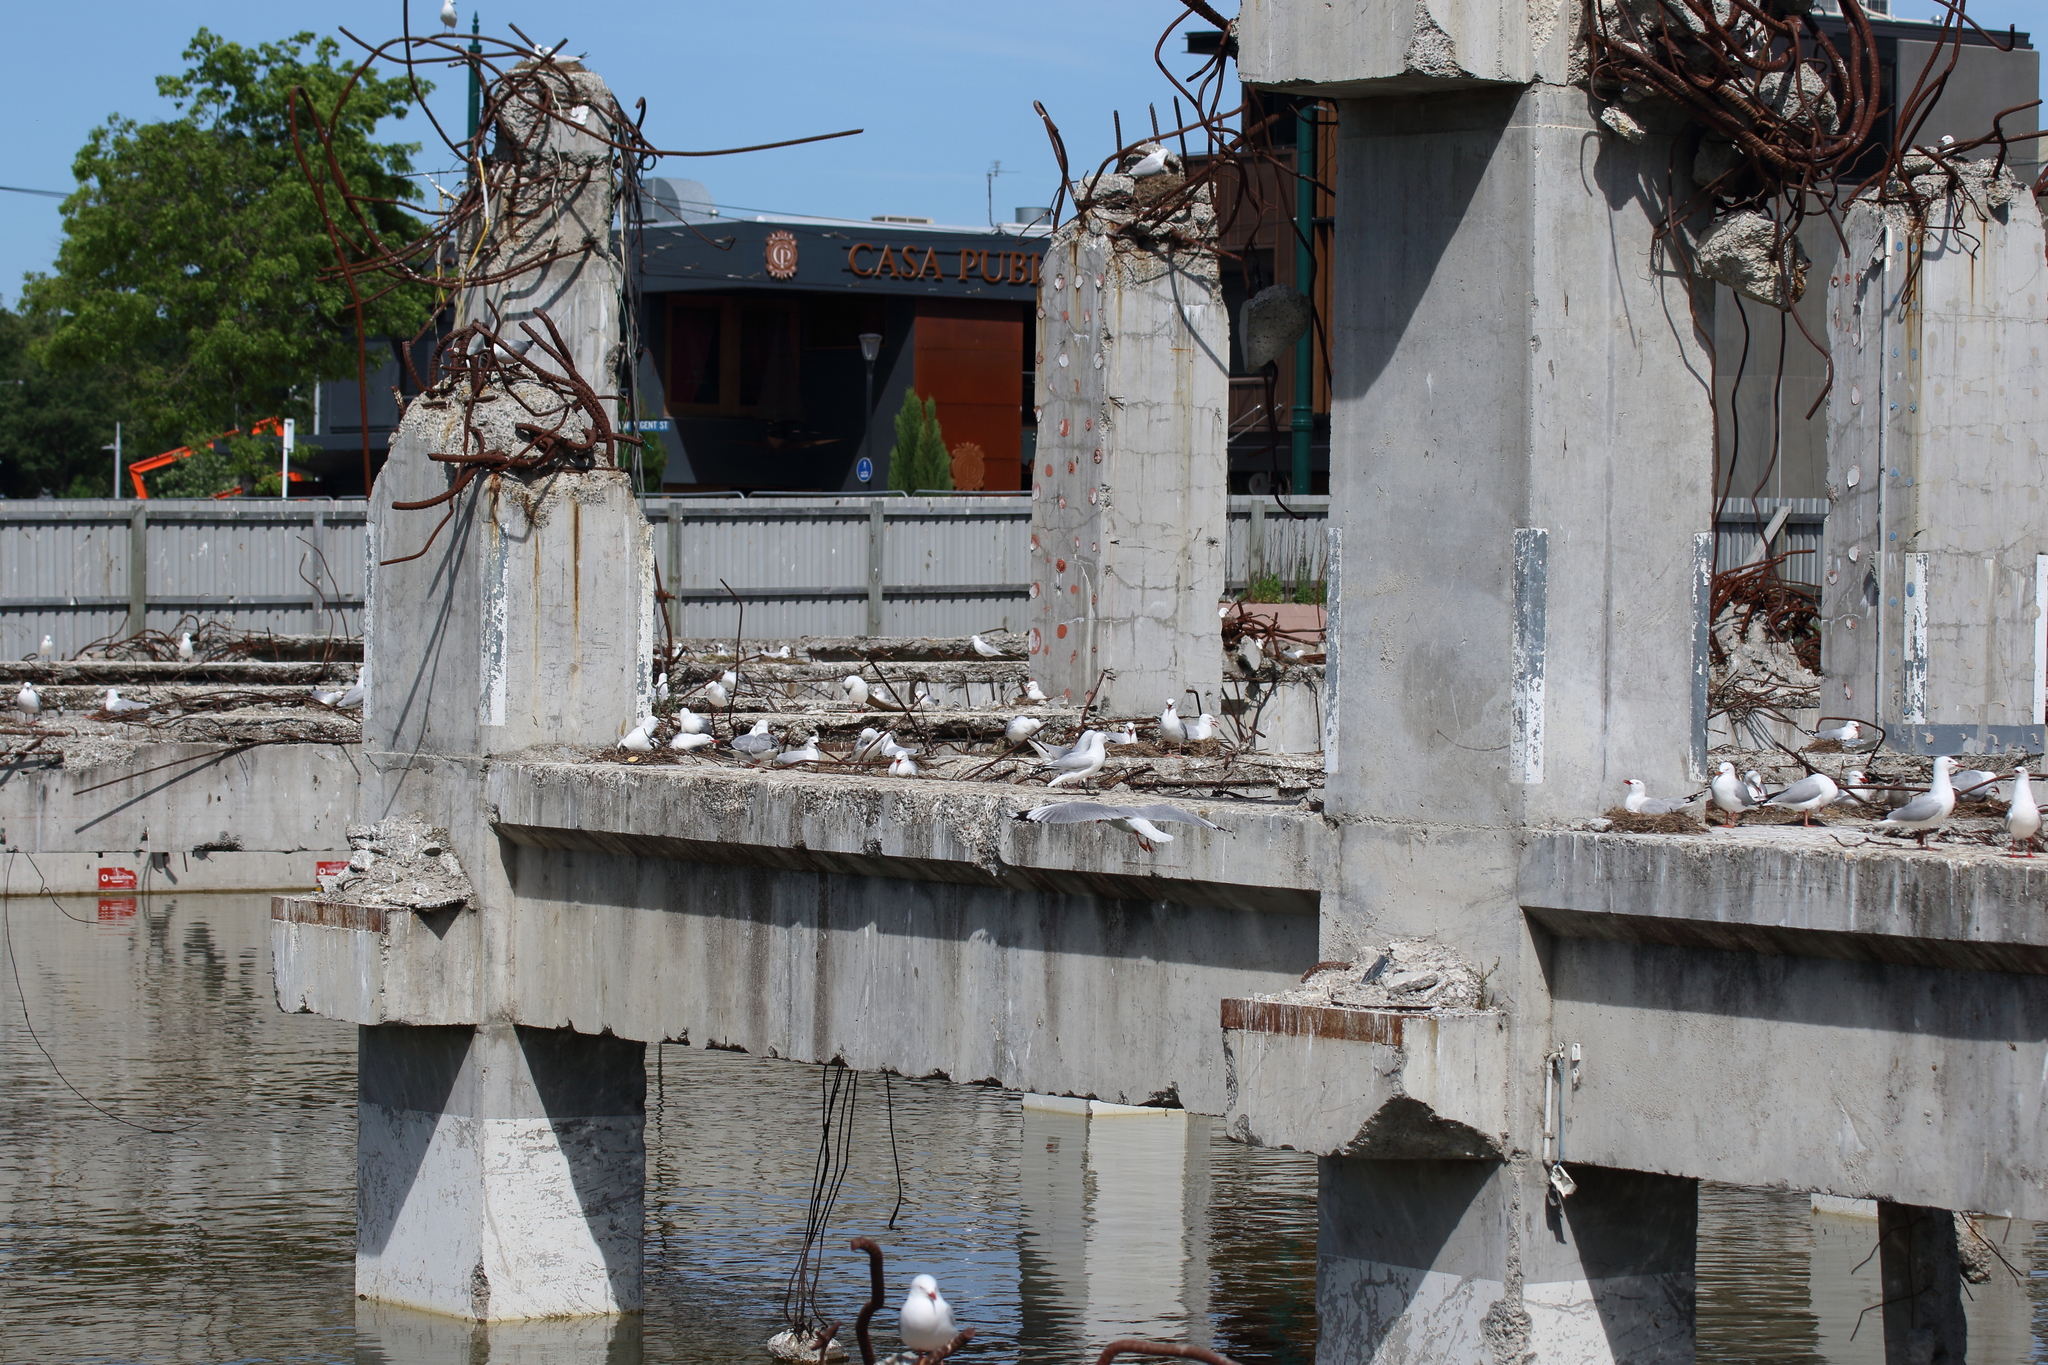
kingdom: Animalia
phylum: Chordata
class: Aves
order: Charadriiformes
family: Laridae
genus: Chroicocephalus
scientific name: Chroicocephalus bulleri
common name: Black-billed gull
